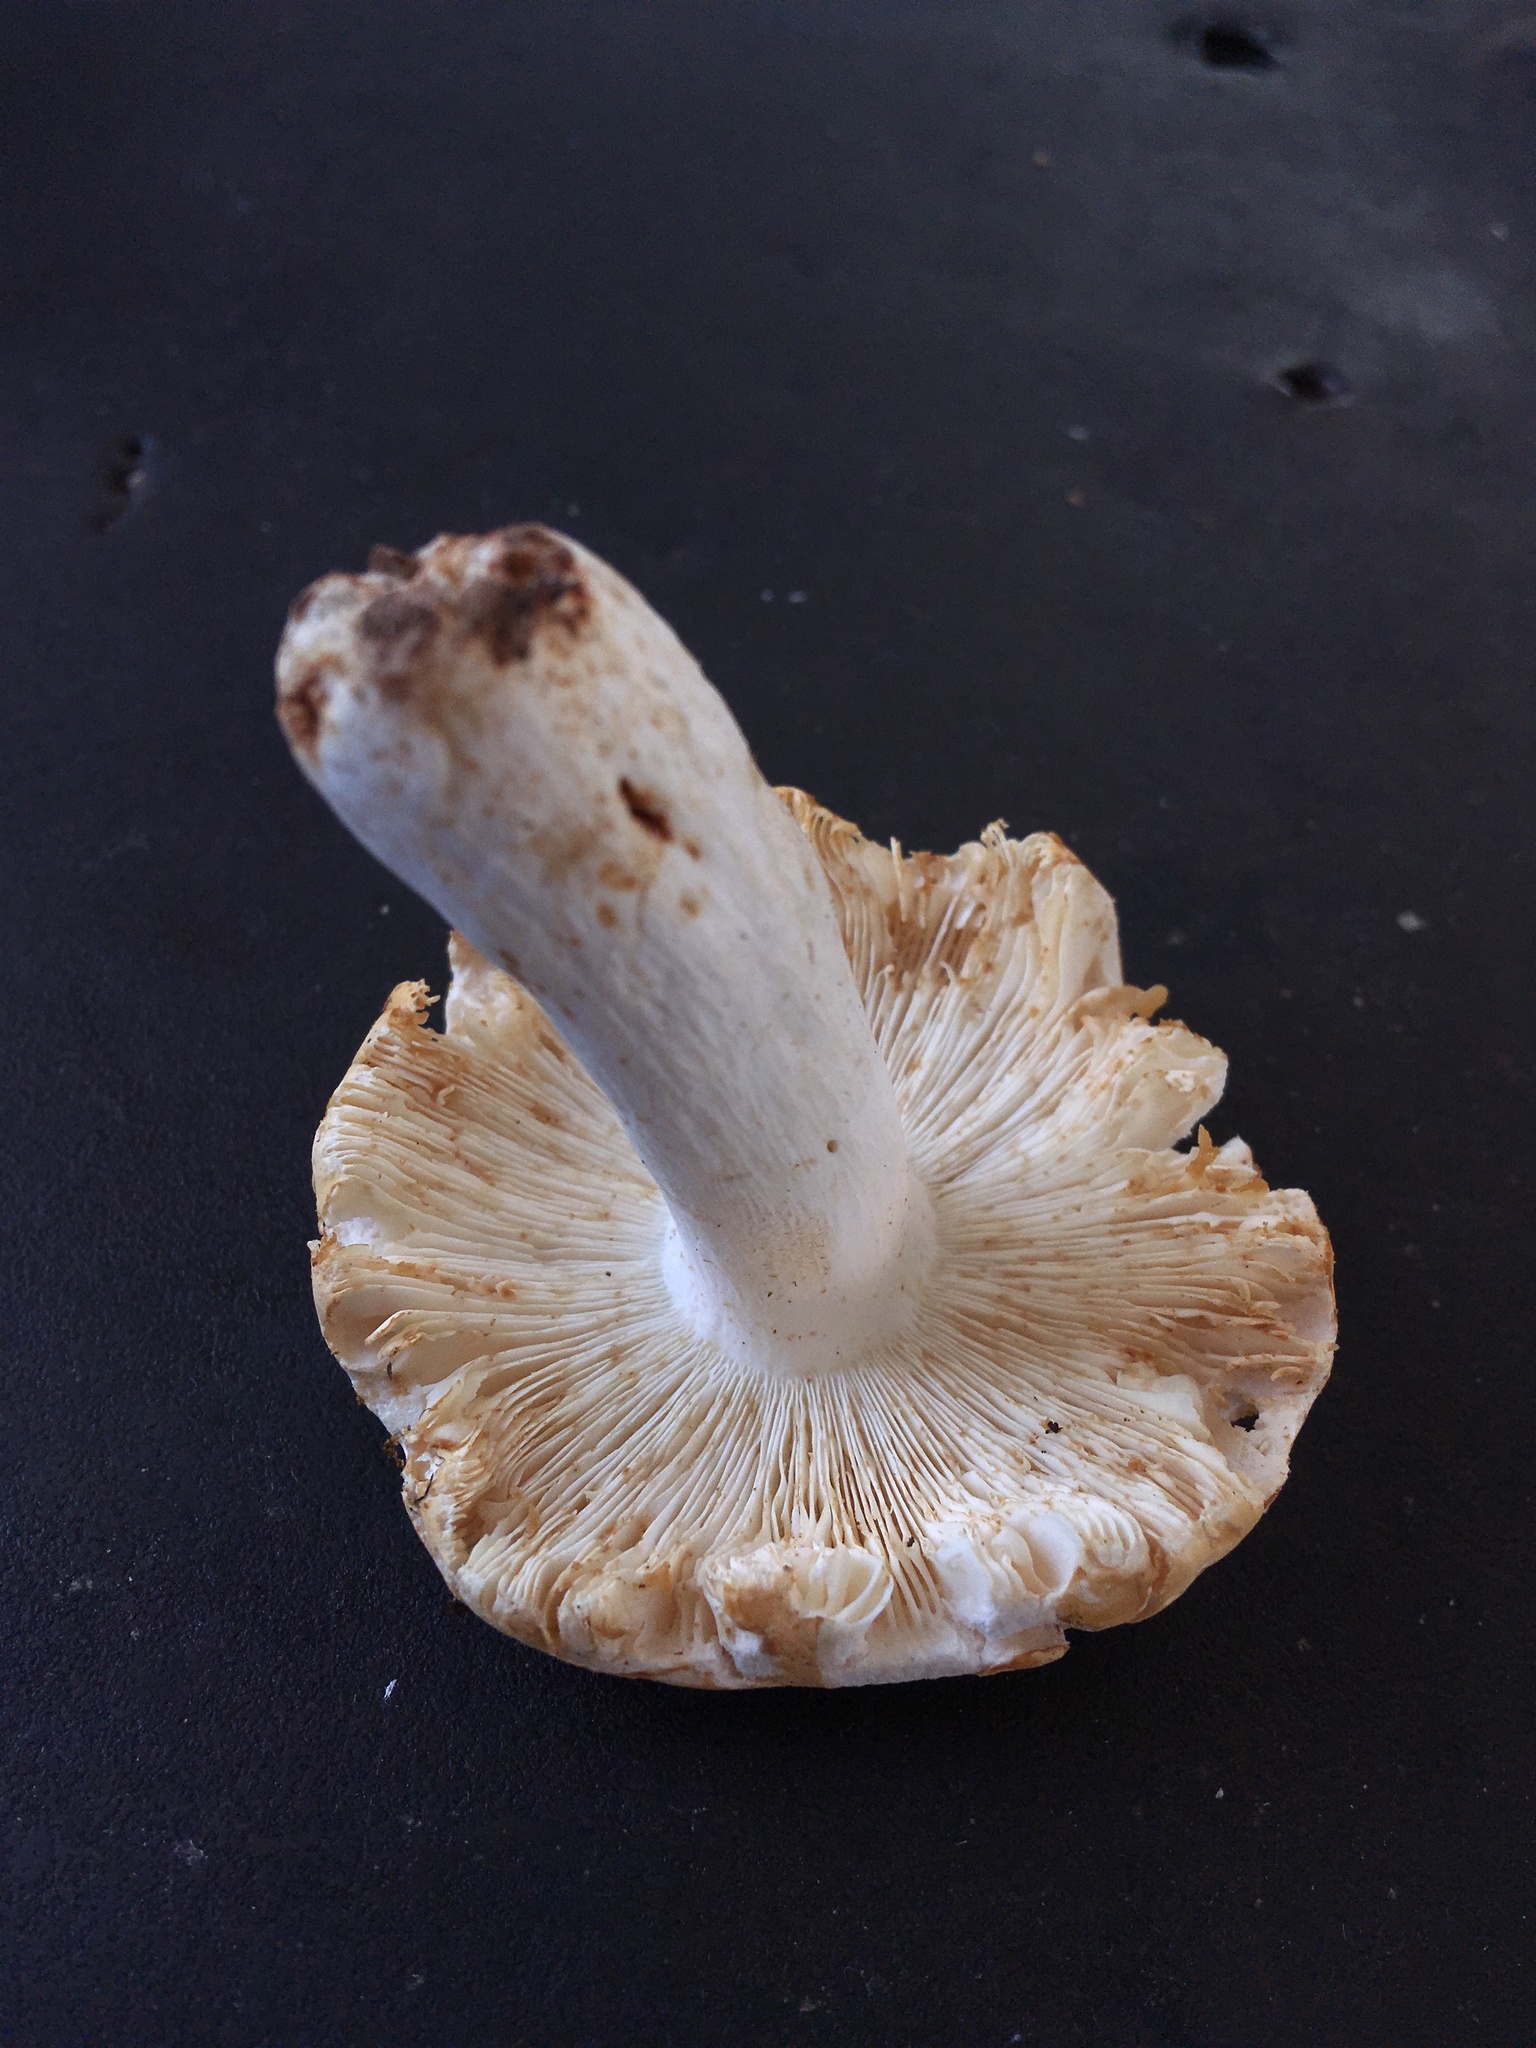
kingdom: Fungi
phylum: Basidiomycota
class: Agaricomycetes
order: Russulales
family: Russulaceae
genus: Russula
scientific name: Russula flavisiccans
